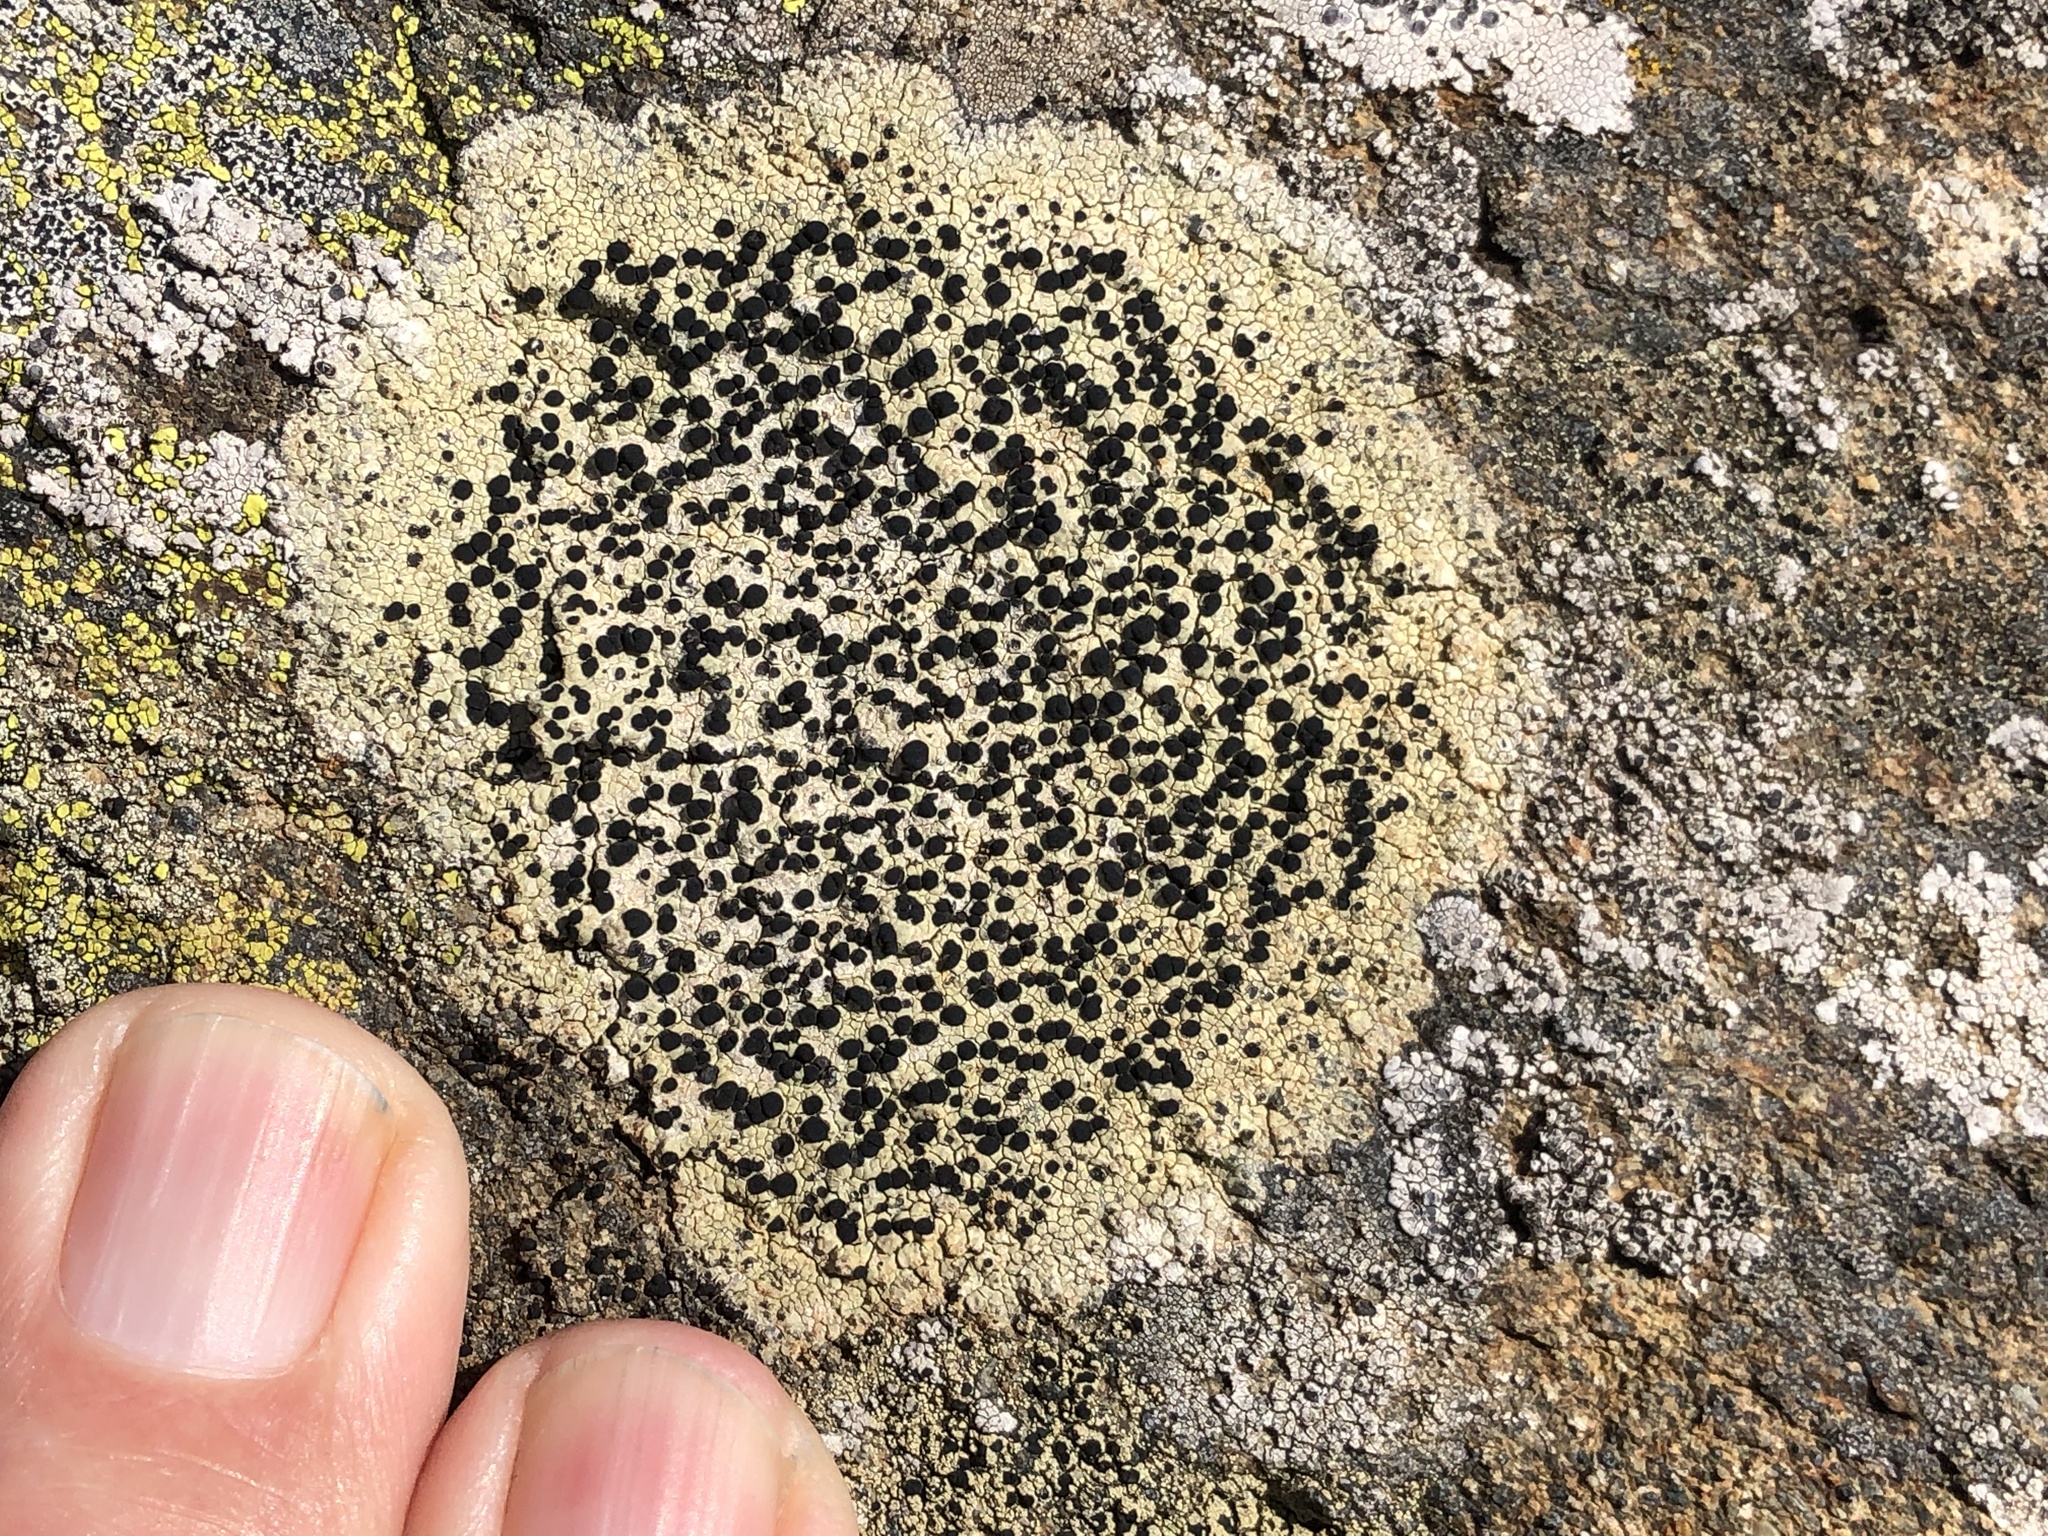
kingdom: Fungi
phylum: Ascomycota
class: Lecanoromycetes
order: Caliciales
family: Caliciaceae
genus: Buellia
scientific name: Buellia halonia
